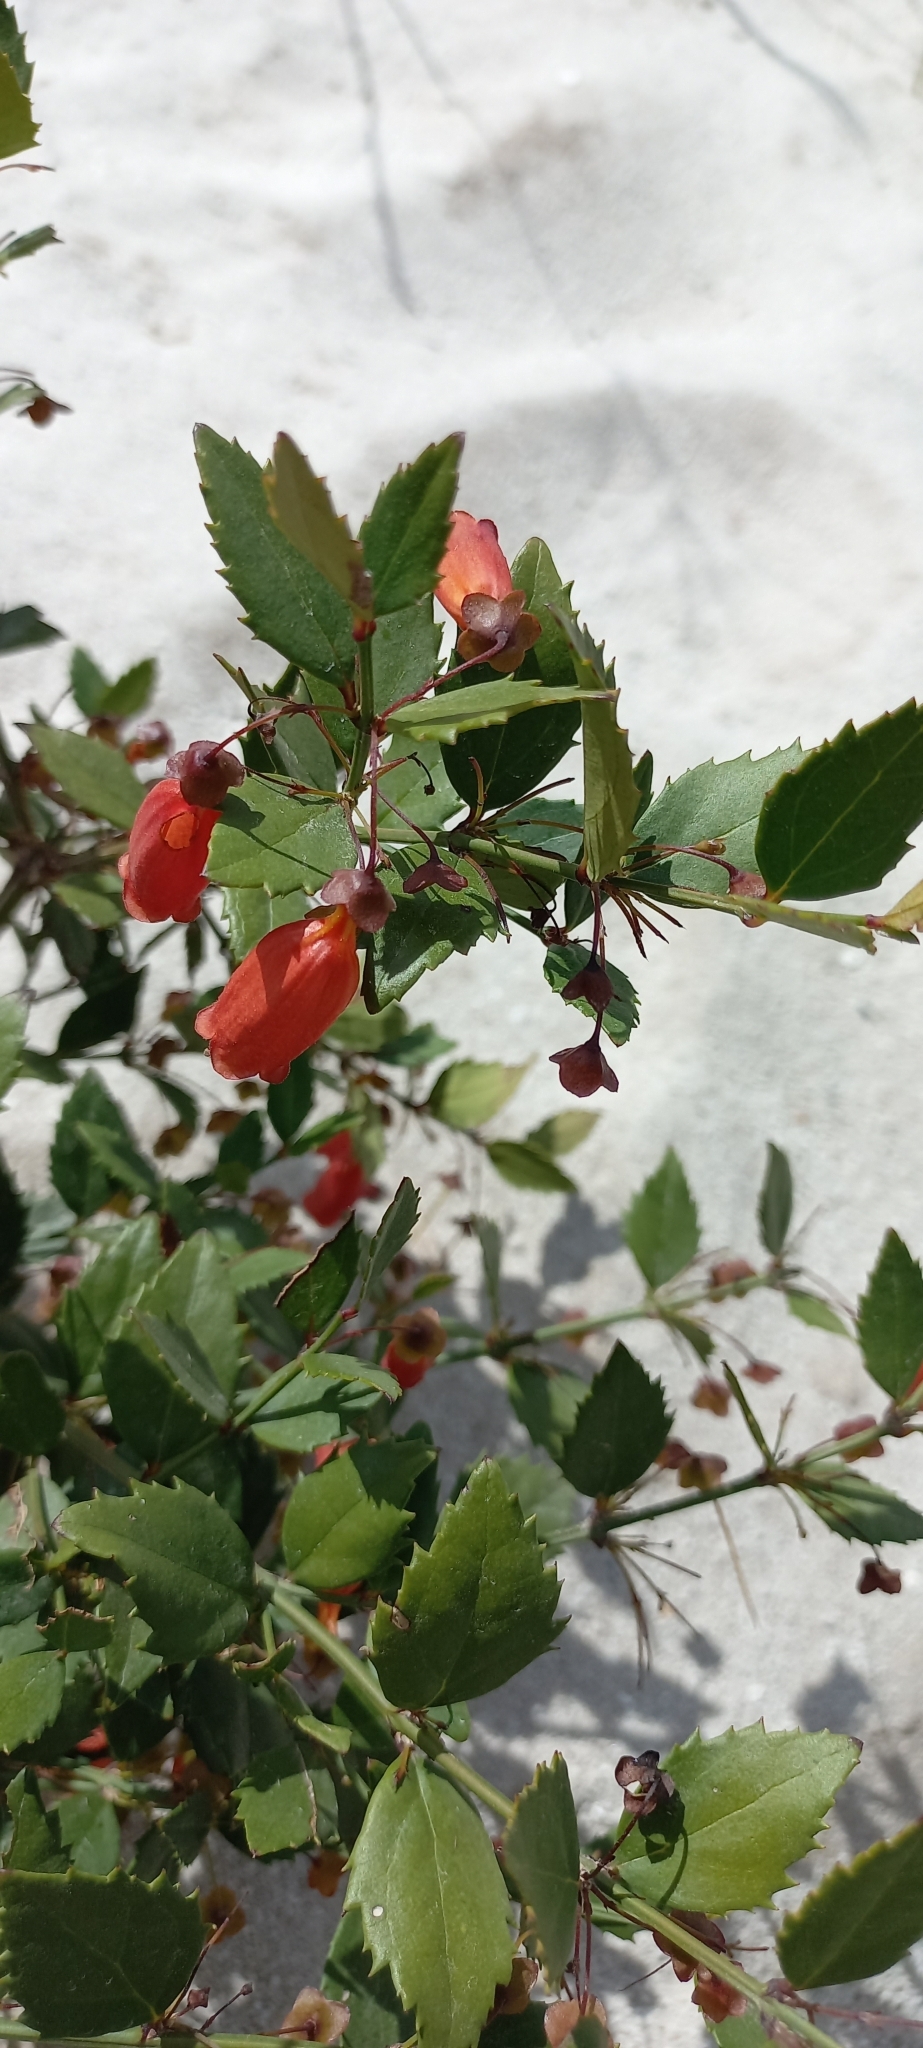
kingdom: Plantae
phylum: Tracheophyta
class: Magnoliopsida
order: Lamiales
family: Stilbaceae
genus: Halleria
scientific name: Halleria elliptica
